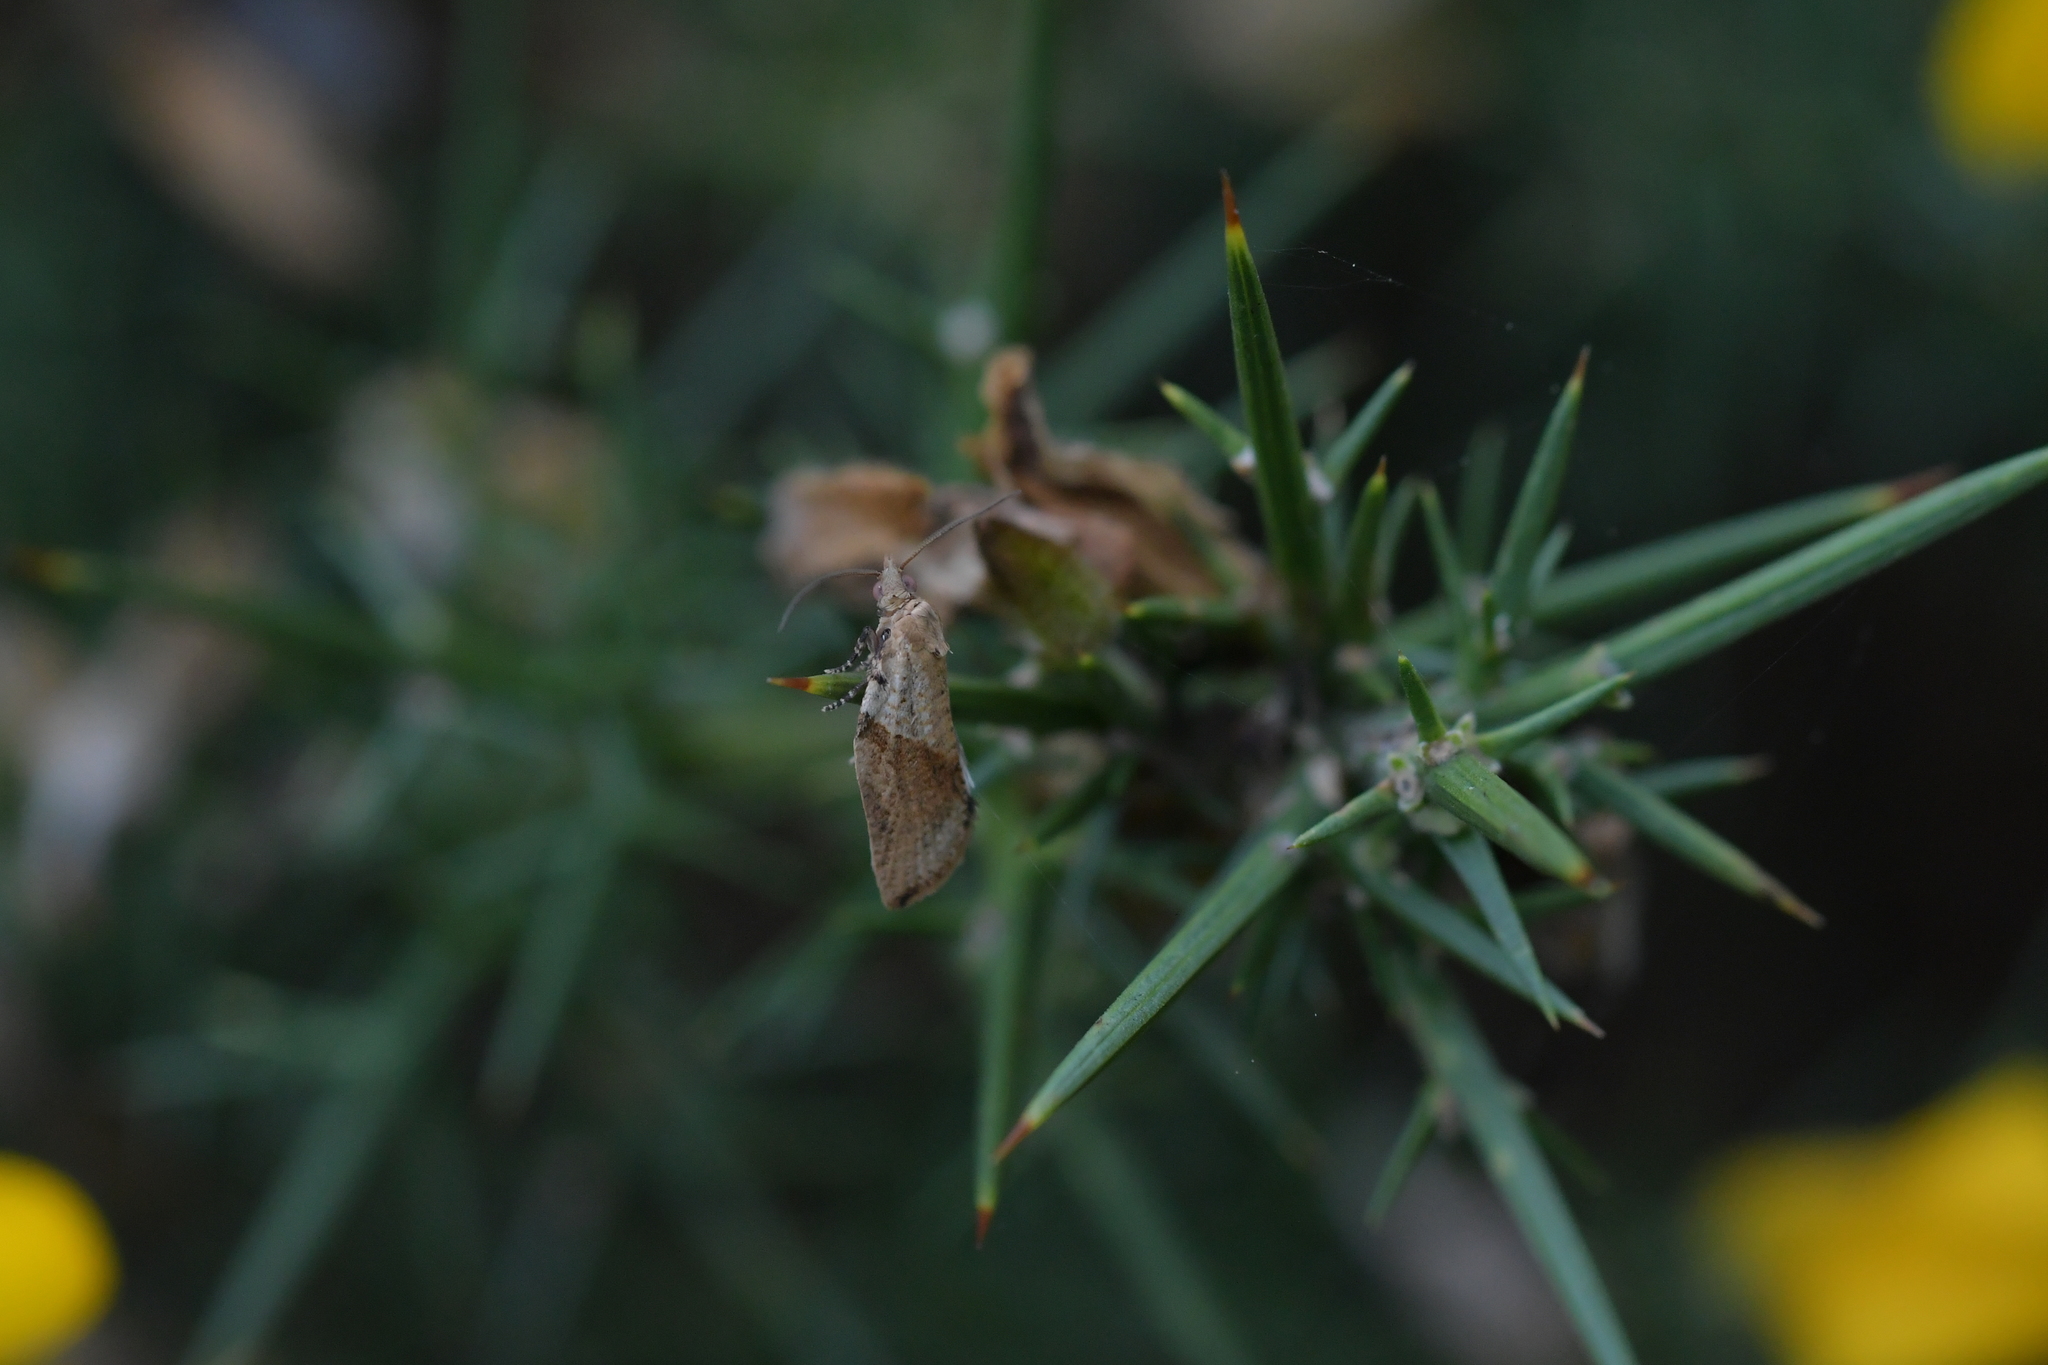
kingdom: Animalia
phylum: Arthropoda
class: Insecta
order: Lepidoptera
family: Tortricidae
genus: Epiphyas
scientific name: Epiphyas postvittana
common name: Light brown apple moth
